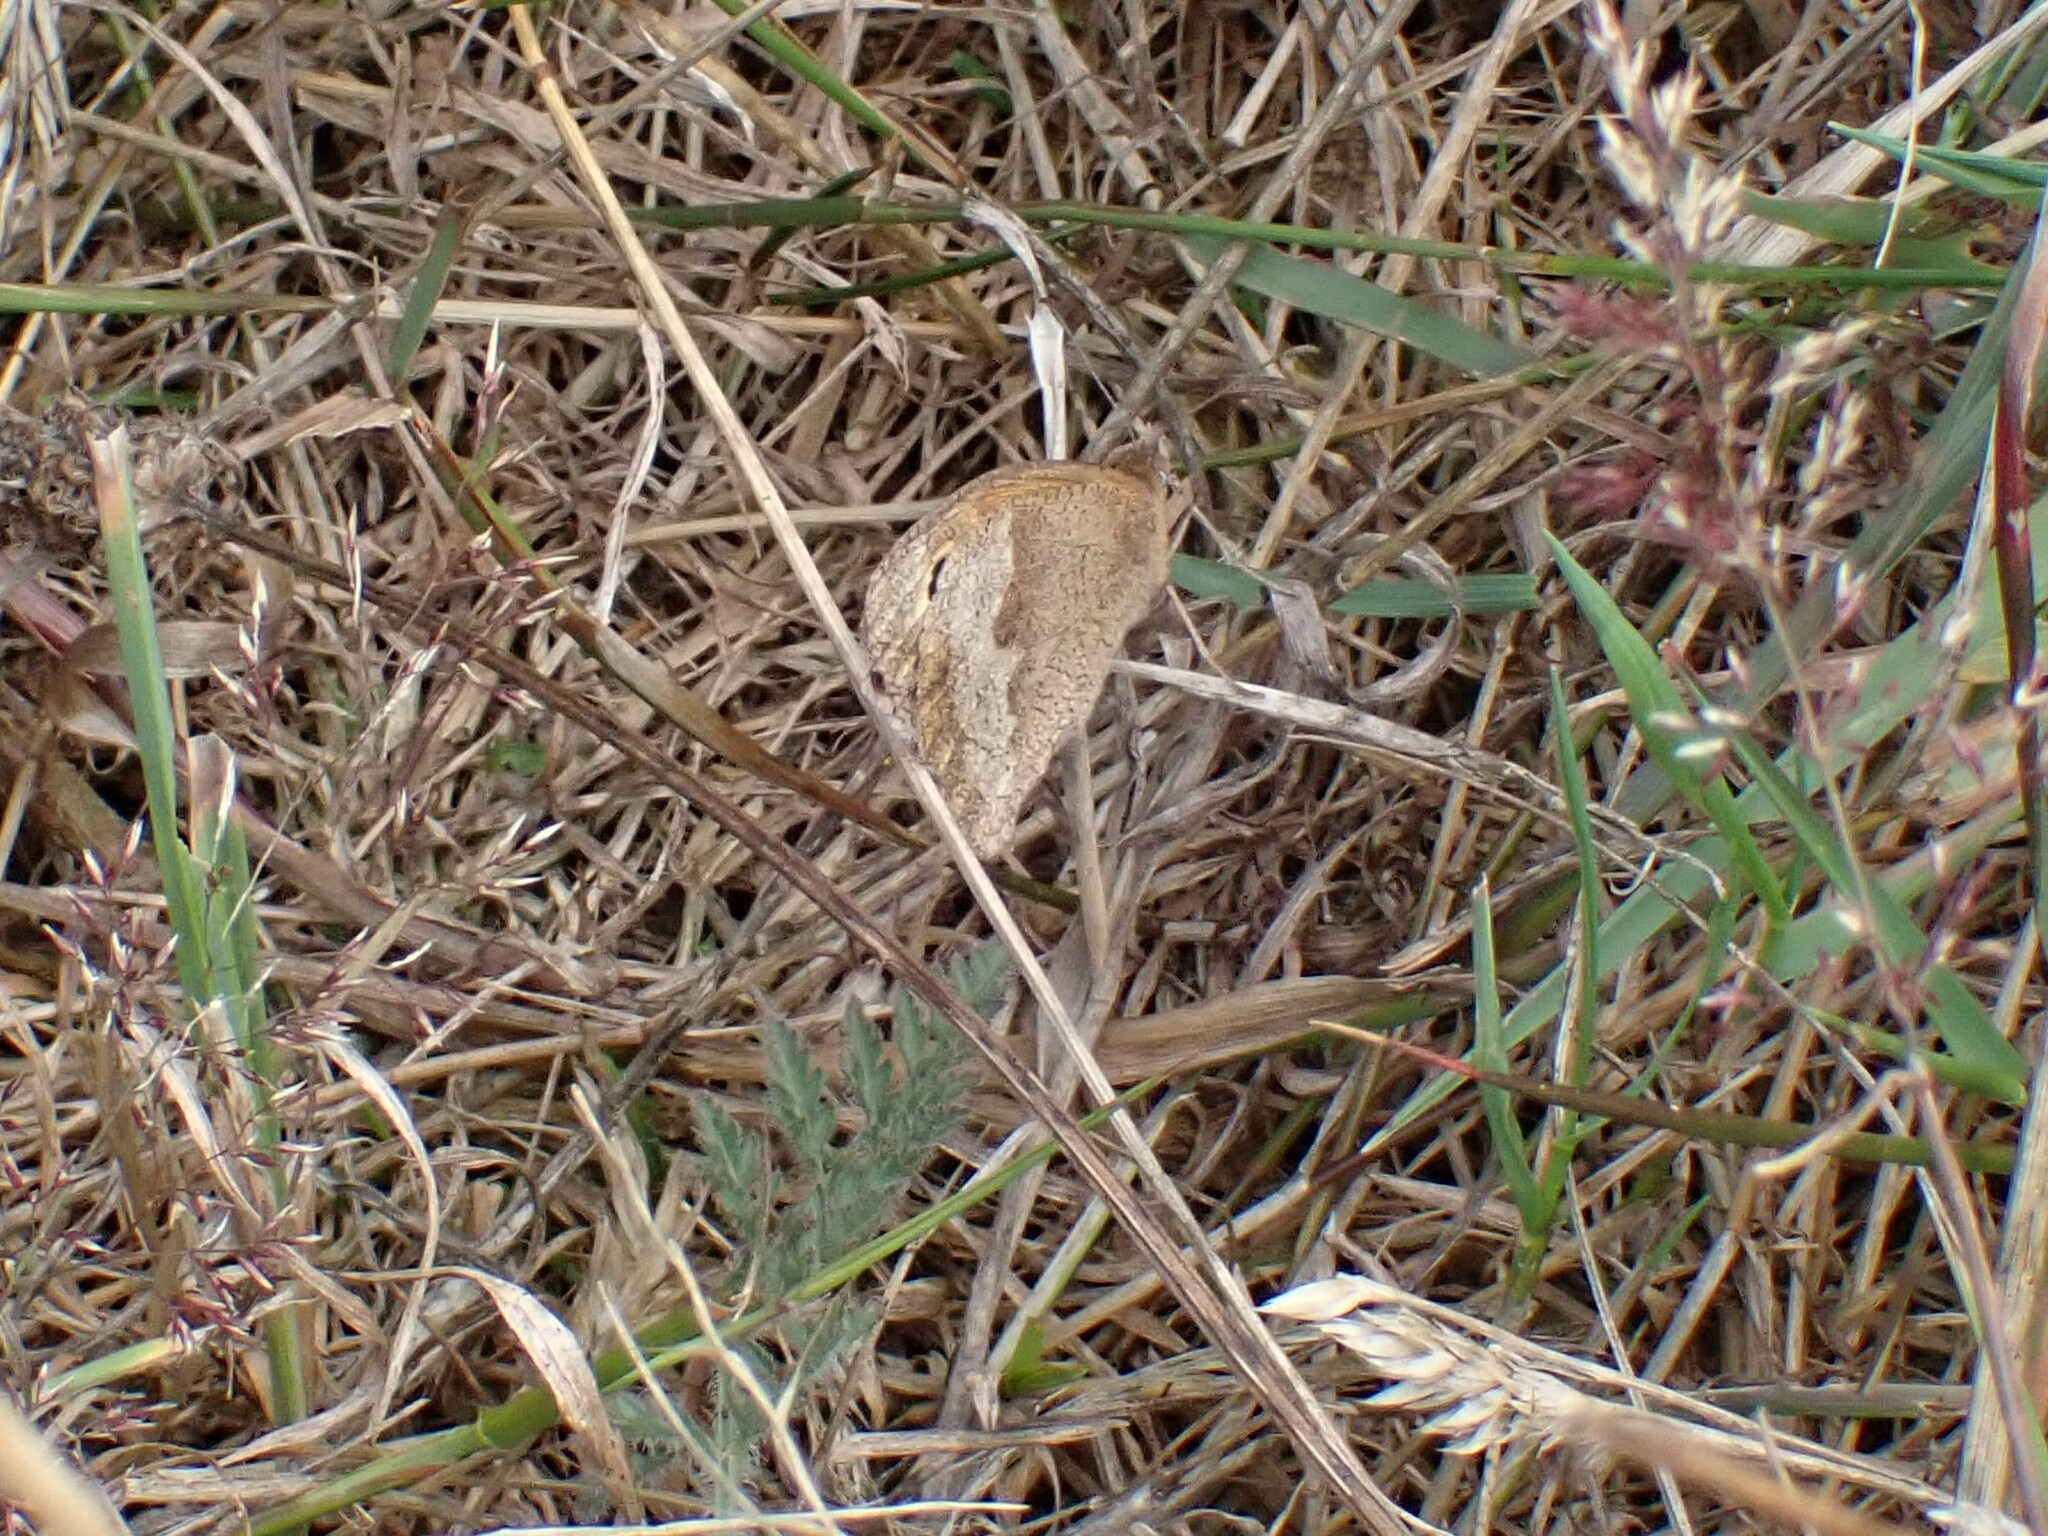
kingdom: Animalia
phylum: Arthropoda
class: Insecta
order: Lepidoptera
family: Nymphalidae
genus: Maniola
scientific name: Maniola jurtina
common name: Meadow brown
